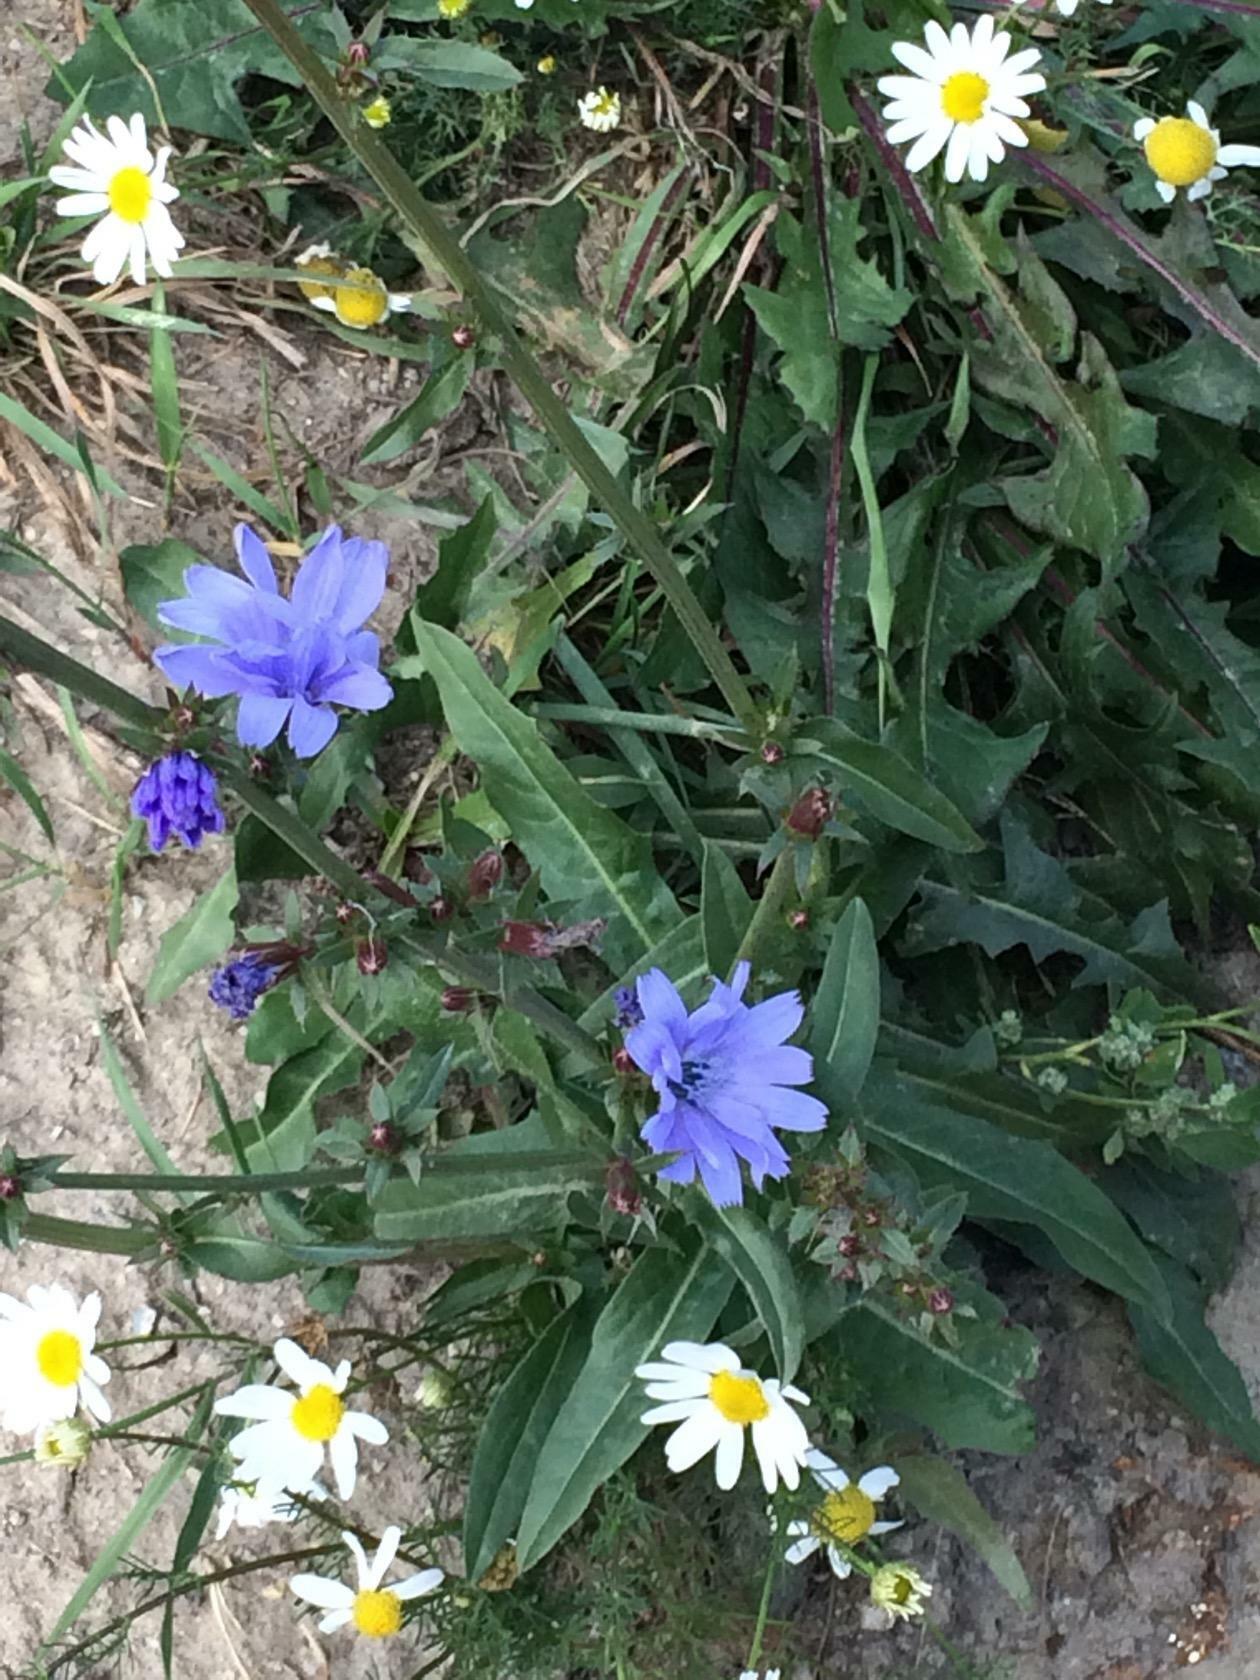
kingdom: Plantae
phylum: Tracheophyta
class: Magnoliopsida
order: Asterales
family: Asteraceae
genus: Cichorium
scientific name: Cichorium intybus
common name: Chicory
